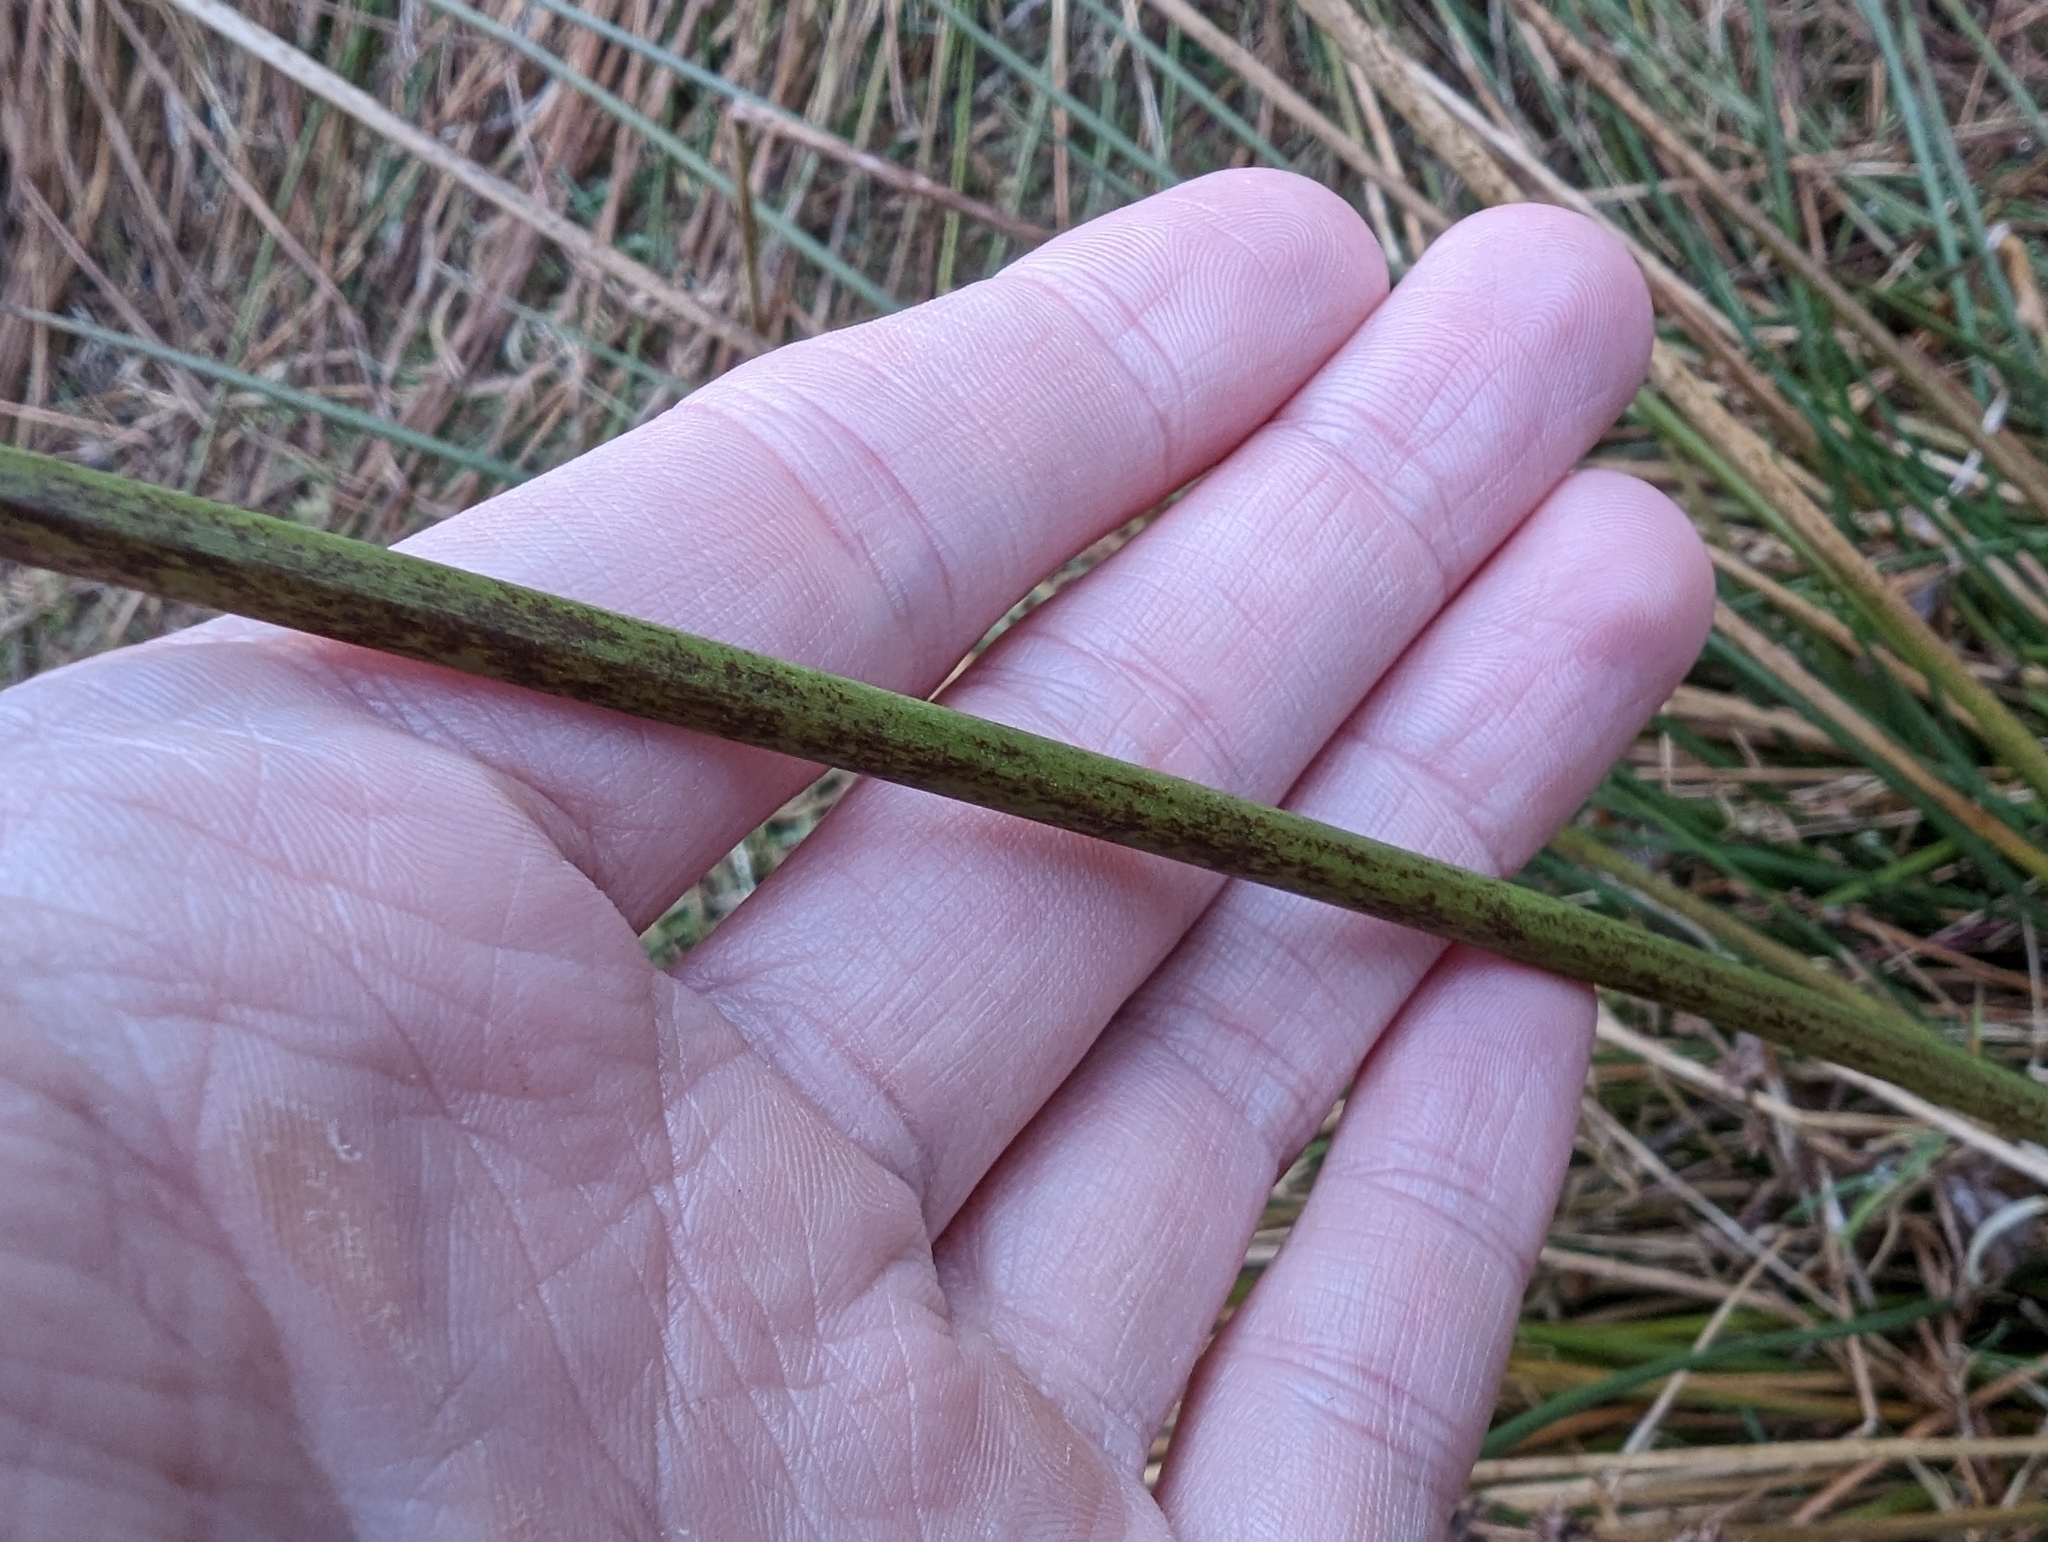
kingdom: Plantae
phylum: Tracheophyta
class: Liliopsida
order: Poales
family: Juncaceae
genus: Juncus
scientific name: Juncus effusus
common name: Soft rush
